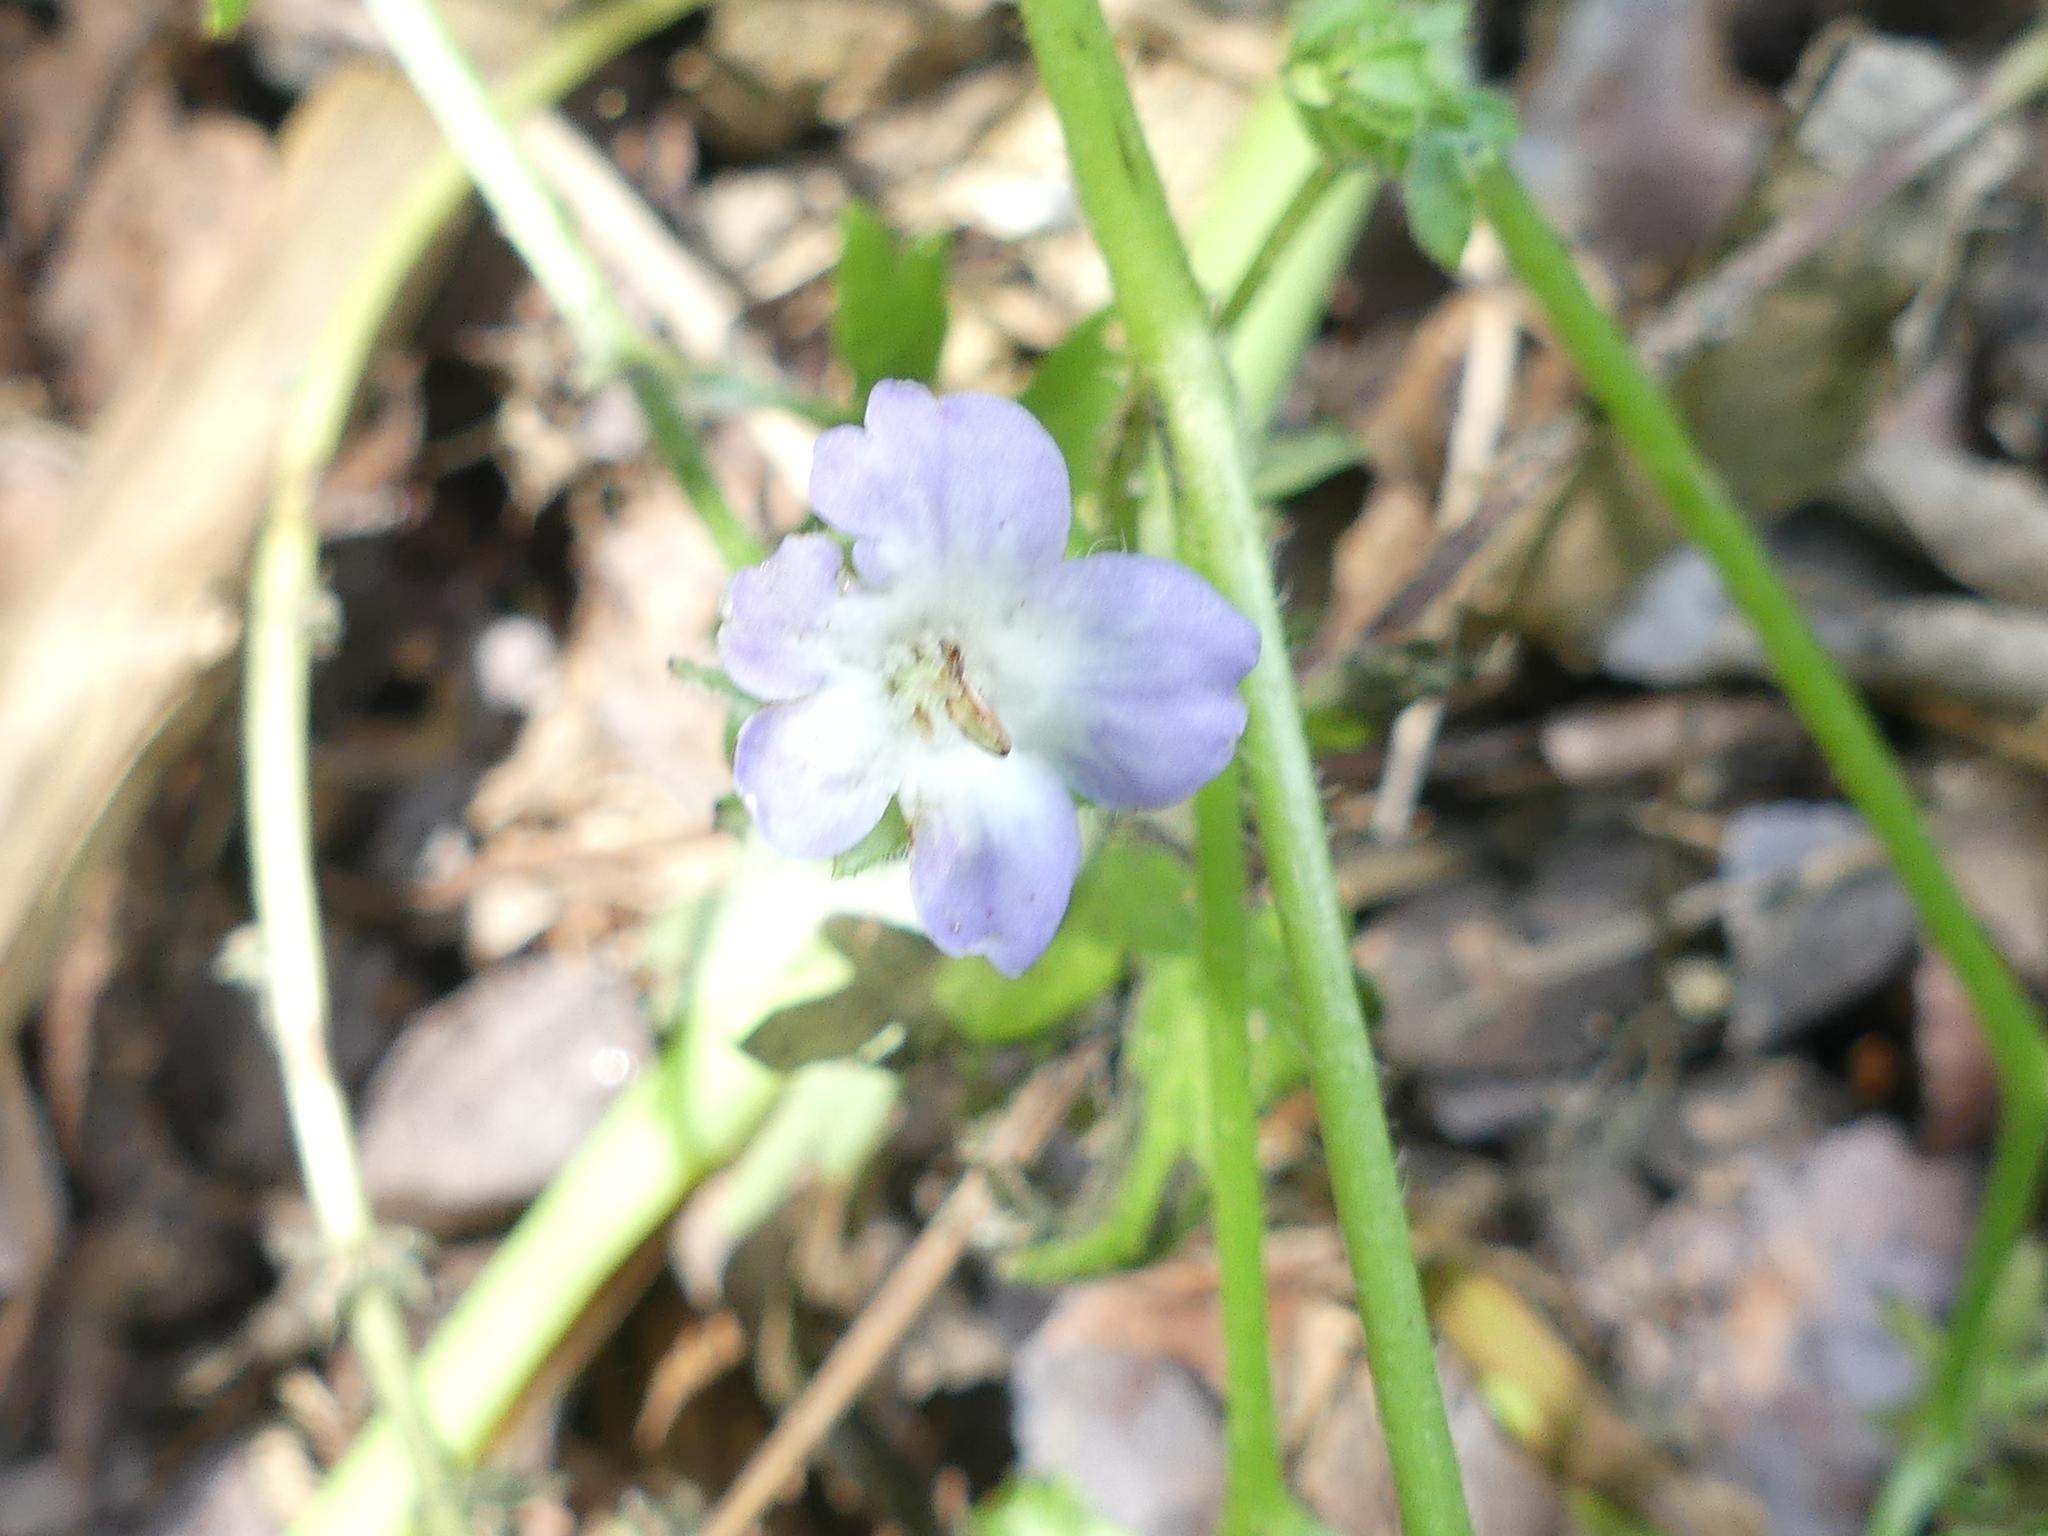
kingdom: Plantae
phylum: Tracheophyta
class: Magnoliopsida
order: Boraginales
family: Hydrophyllaceae
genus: Nemophila
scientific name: Nemophila phacelioides
